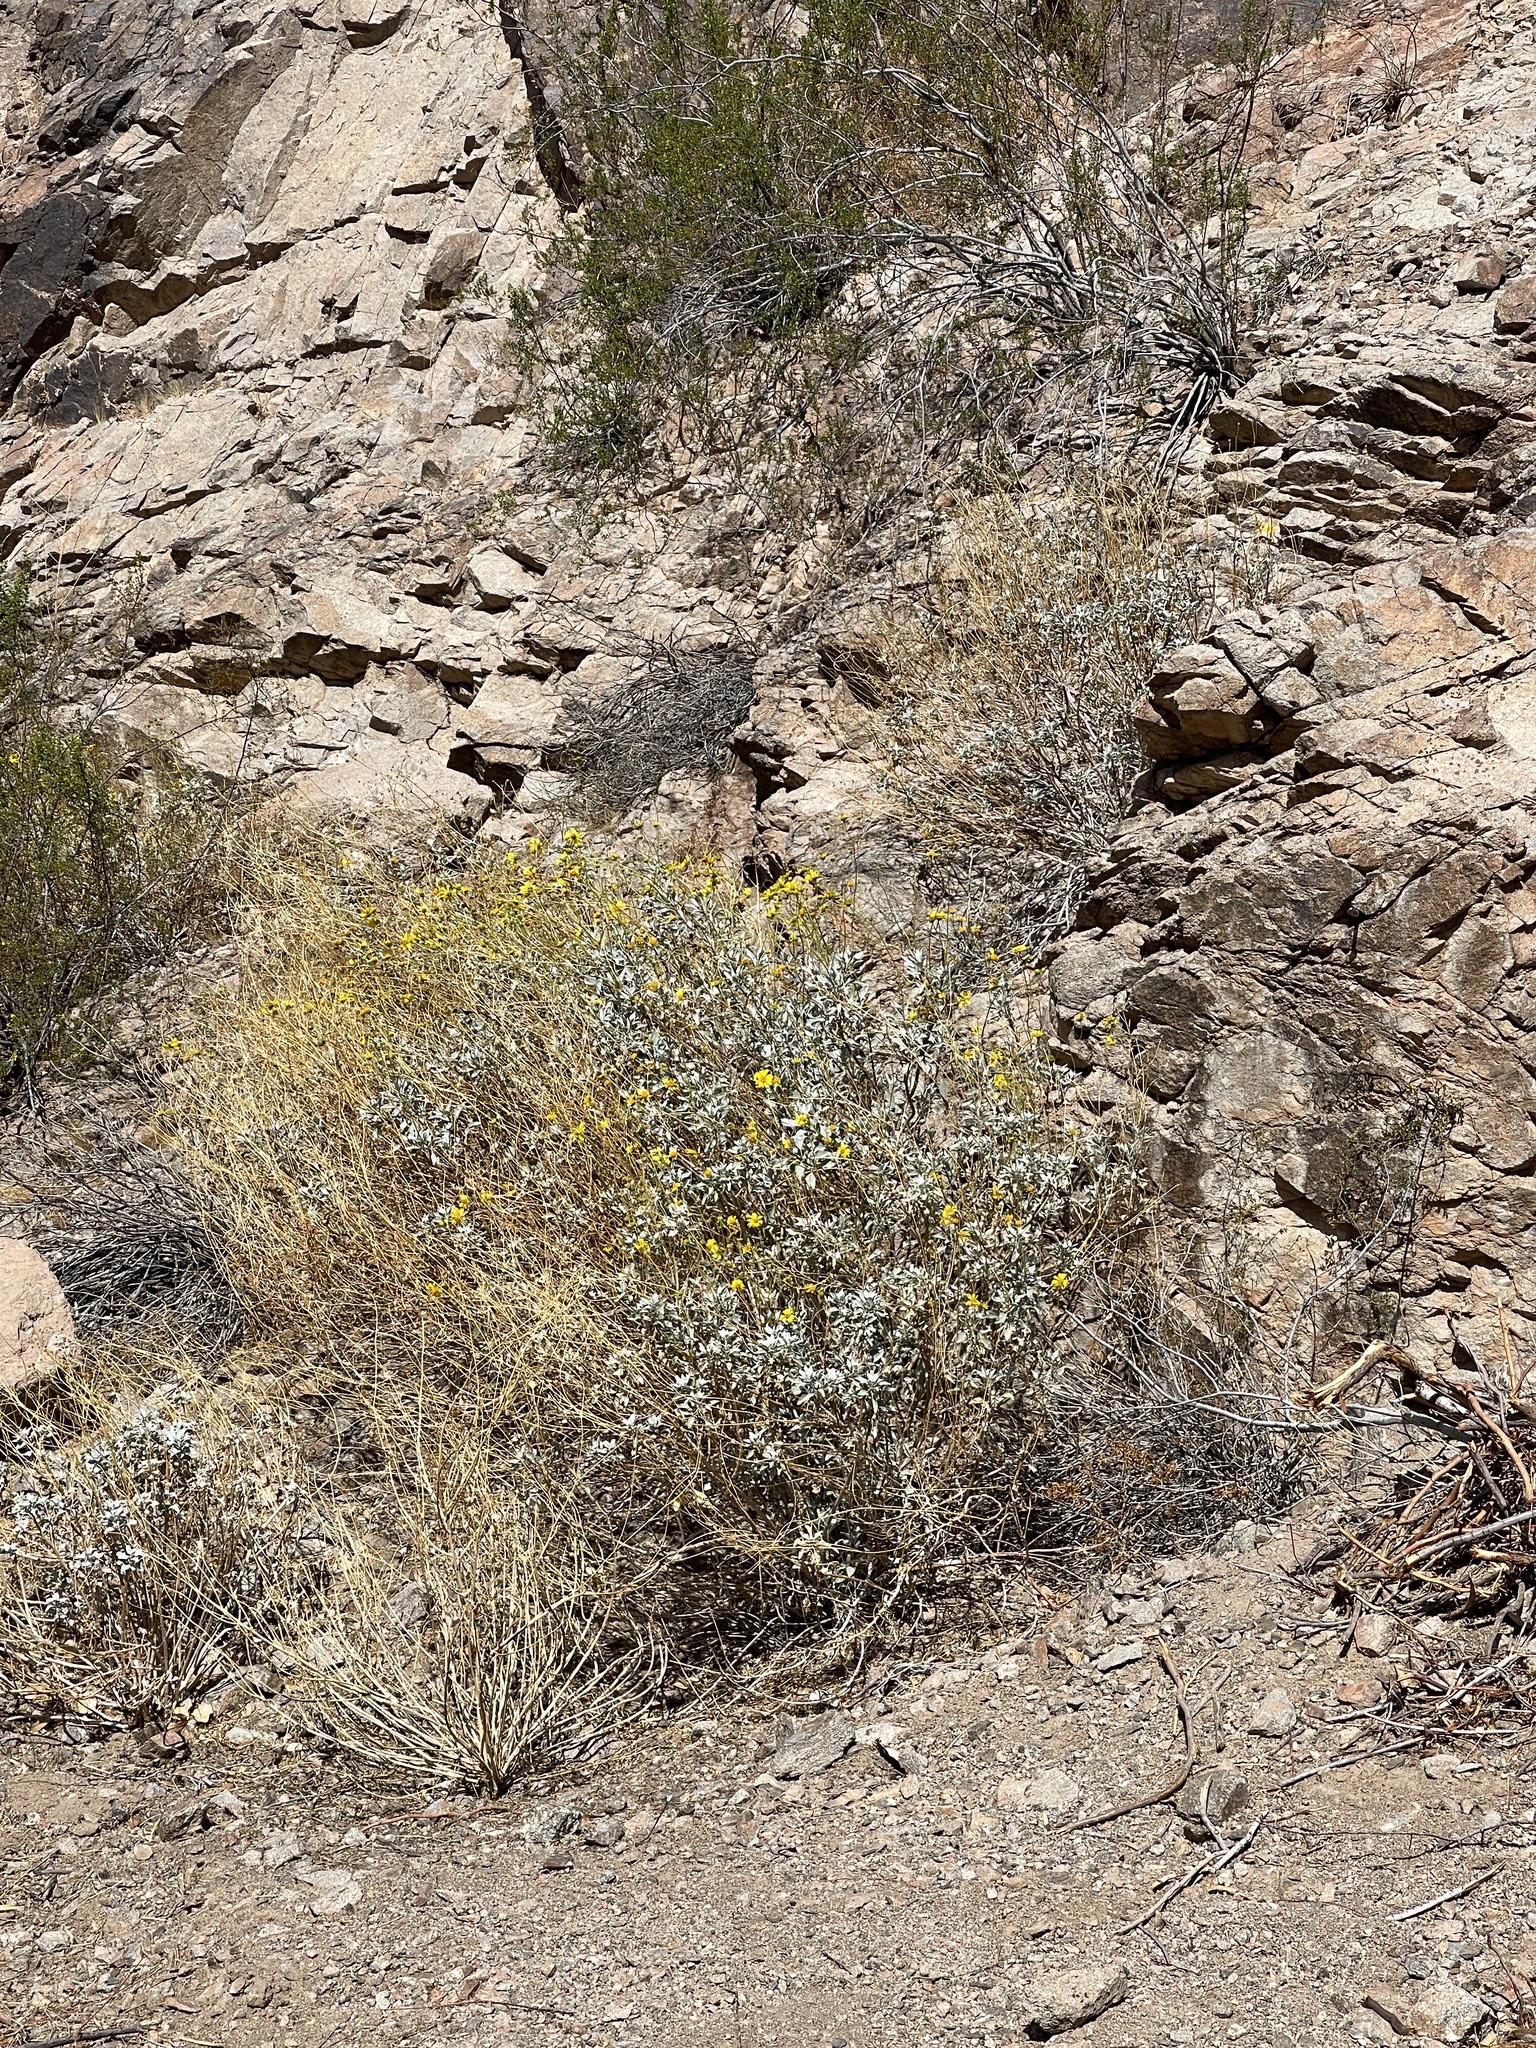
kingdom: Plantae
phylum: Tracheophyta
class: Magnoliopsida
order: Asterales
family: Asteraceae
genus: Encelia
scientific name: Encelia farinosa
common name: Brittlebush
